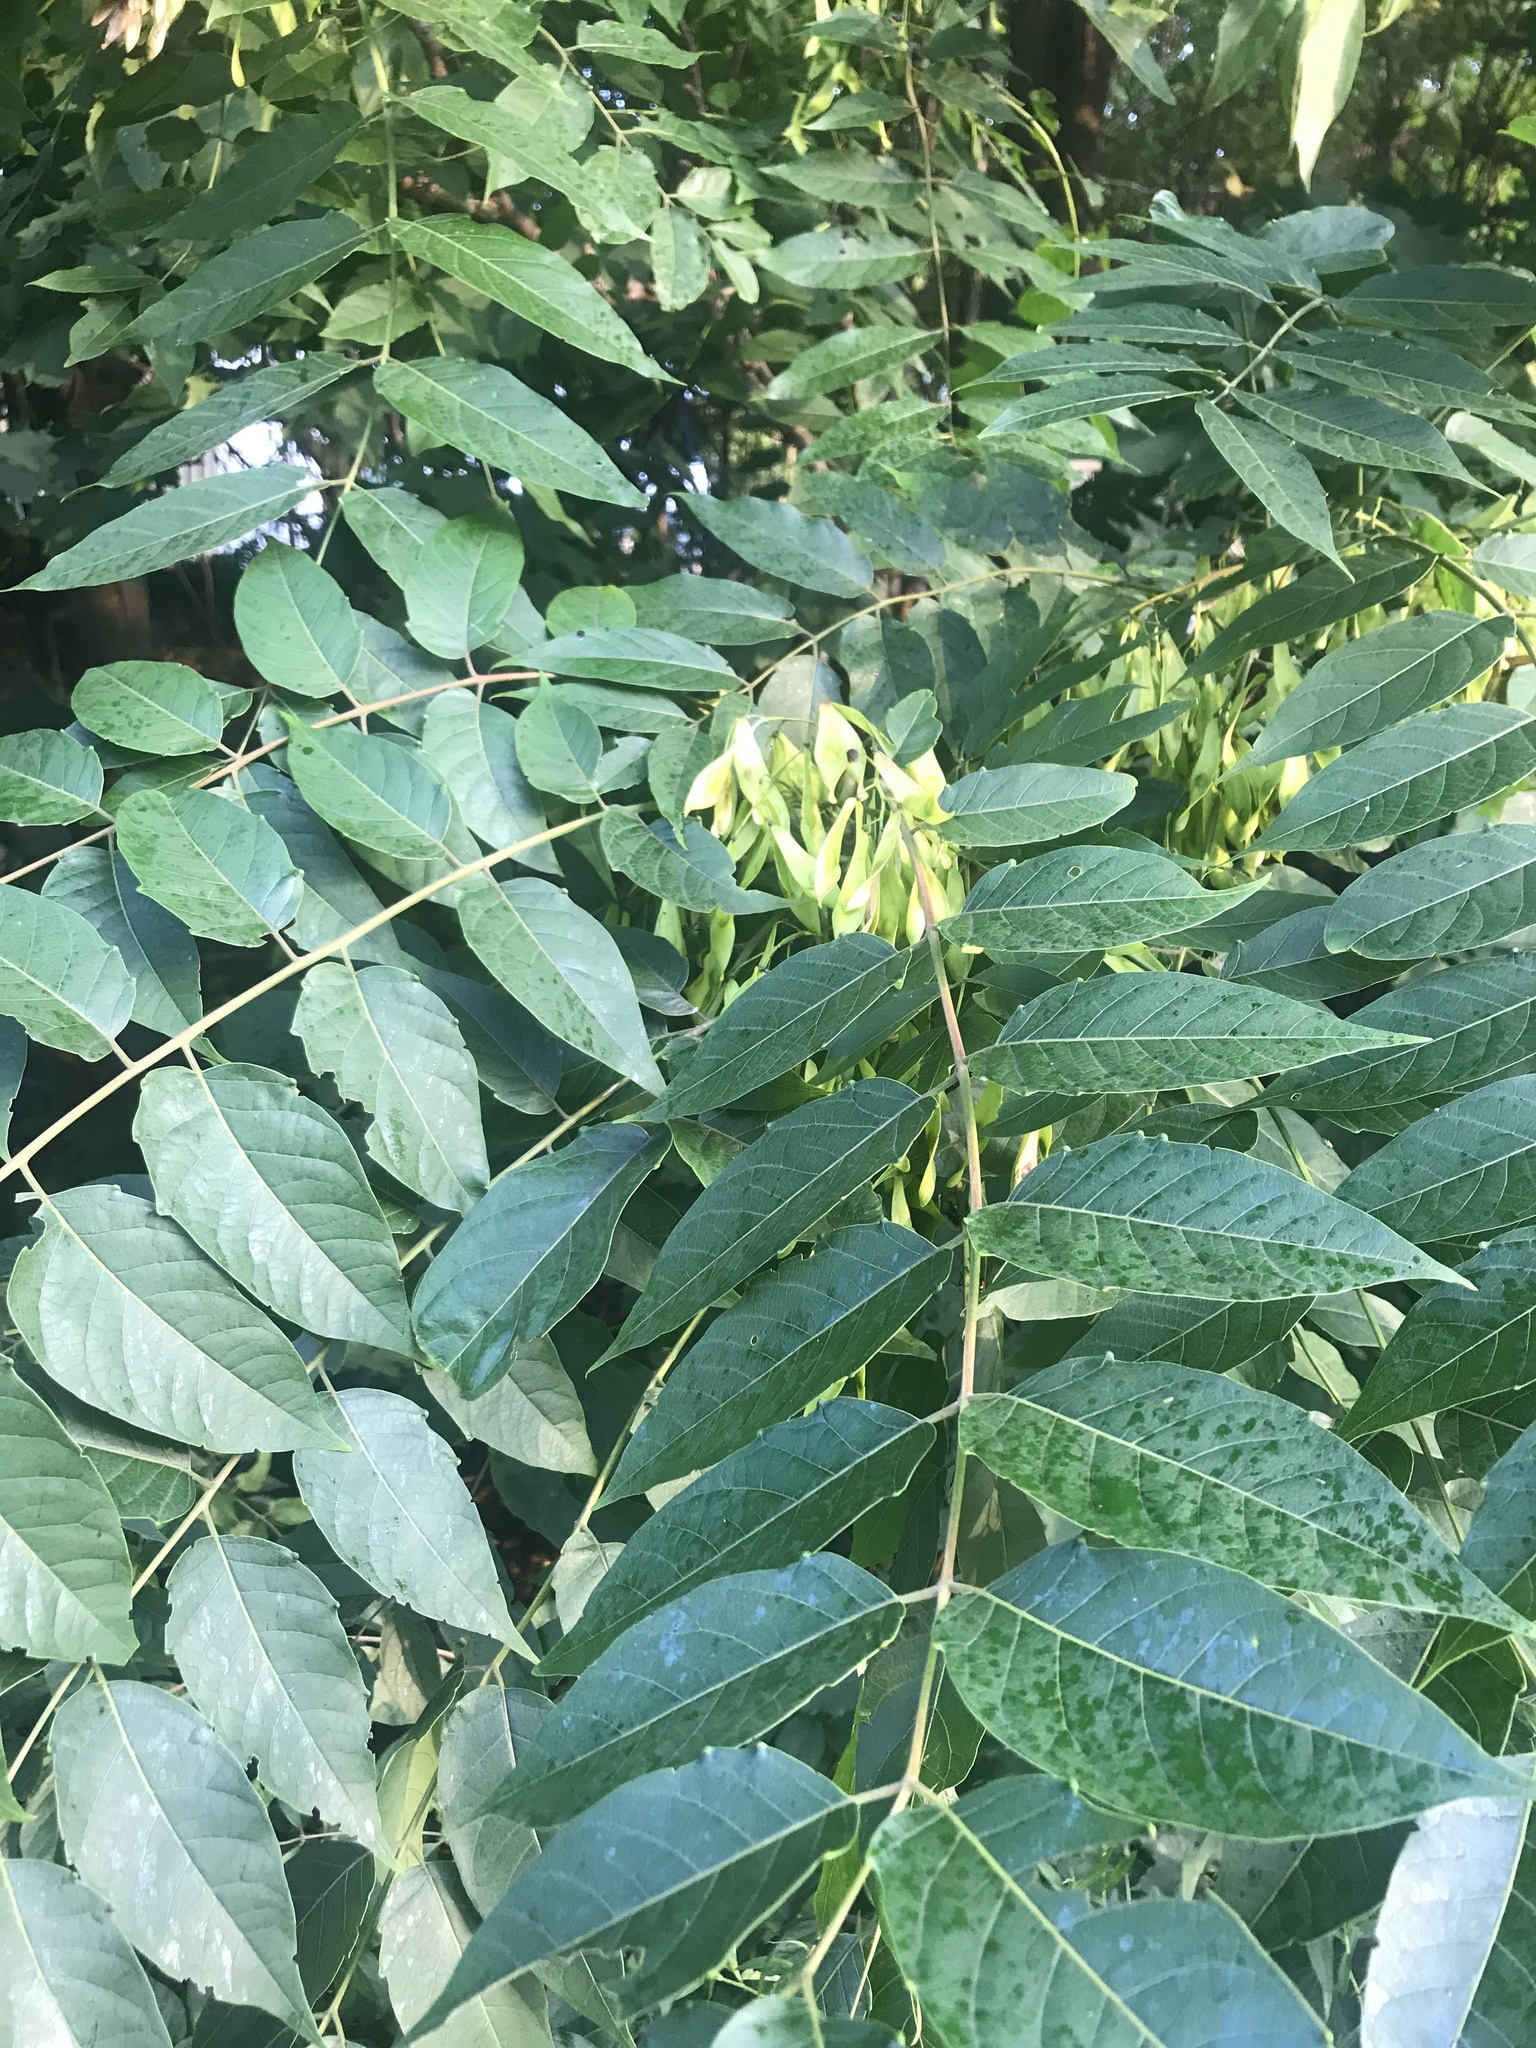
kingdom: Plantae
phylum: Tracheophyta
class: Magnoliopsida
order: Sapindales
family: Simaroubaceae
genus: Ailanthus
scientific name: Ailanthus altissima
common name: Tree-of-heaven
